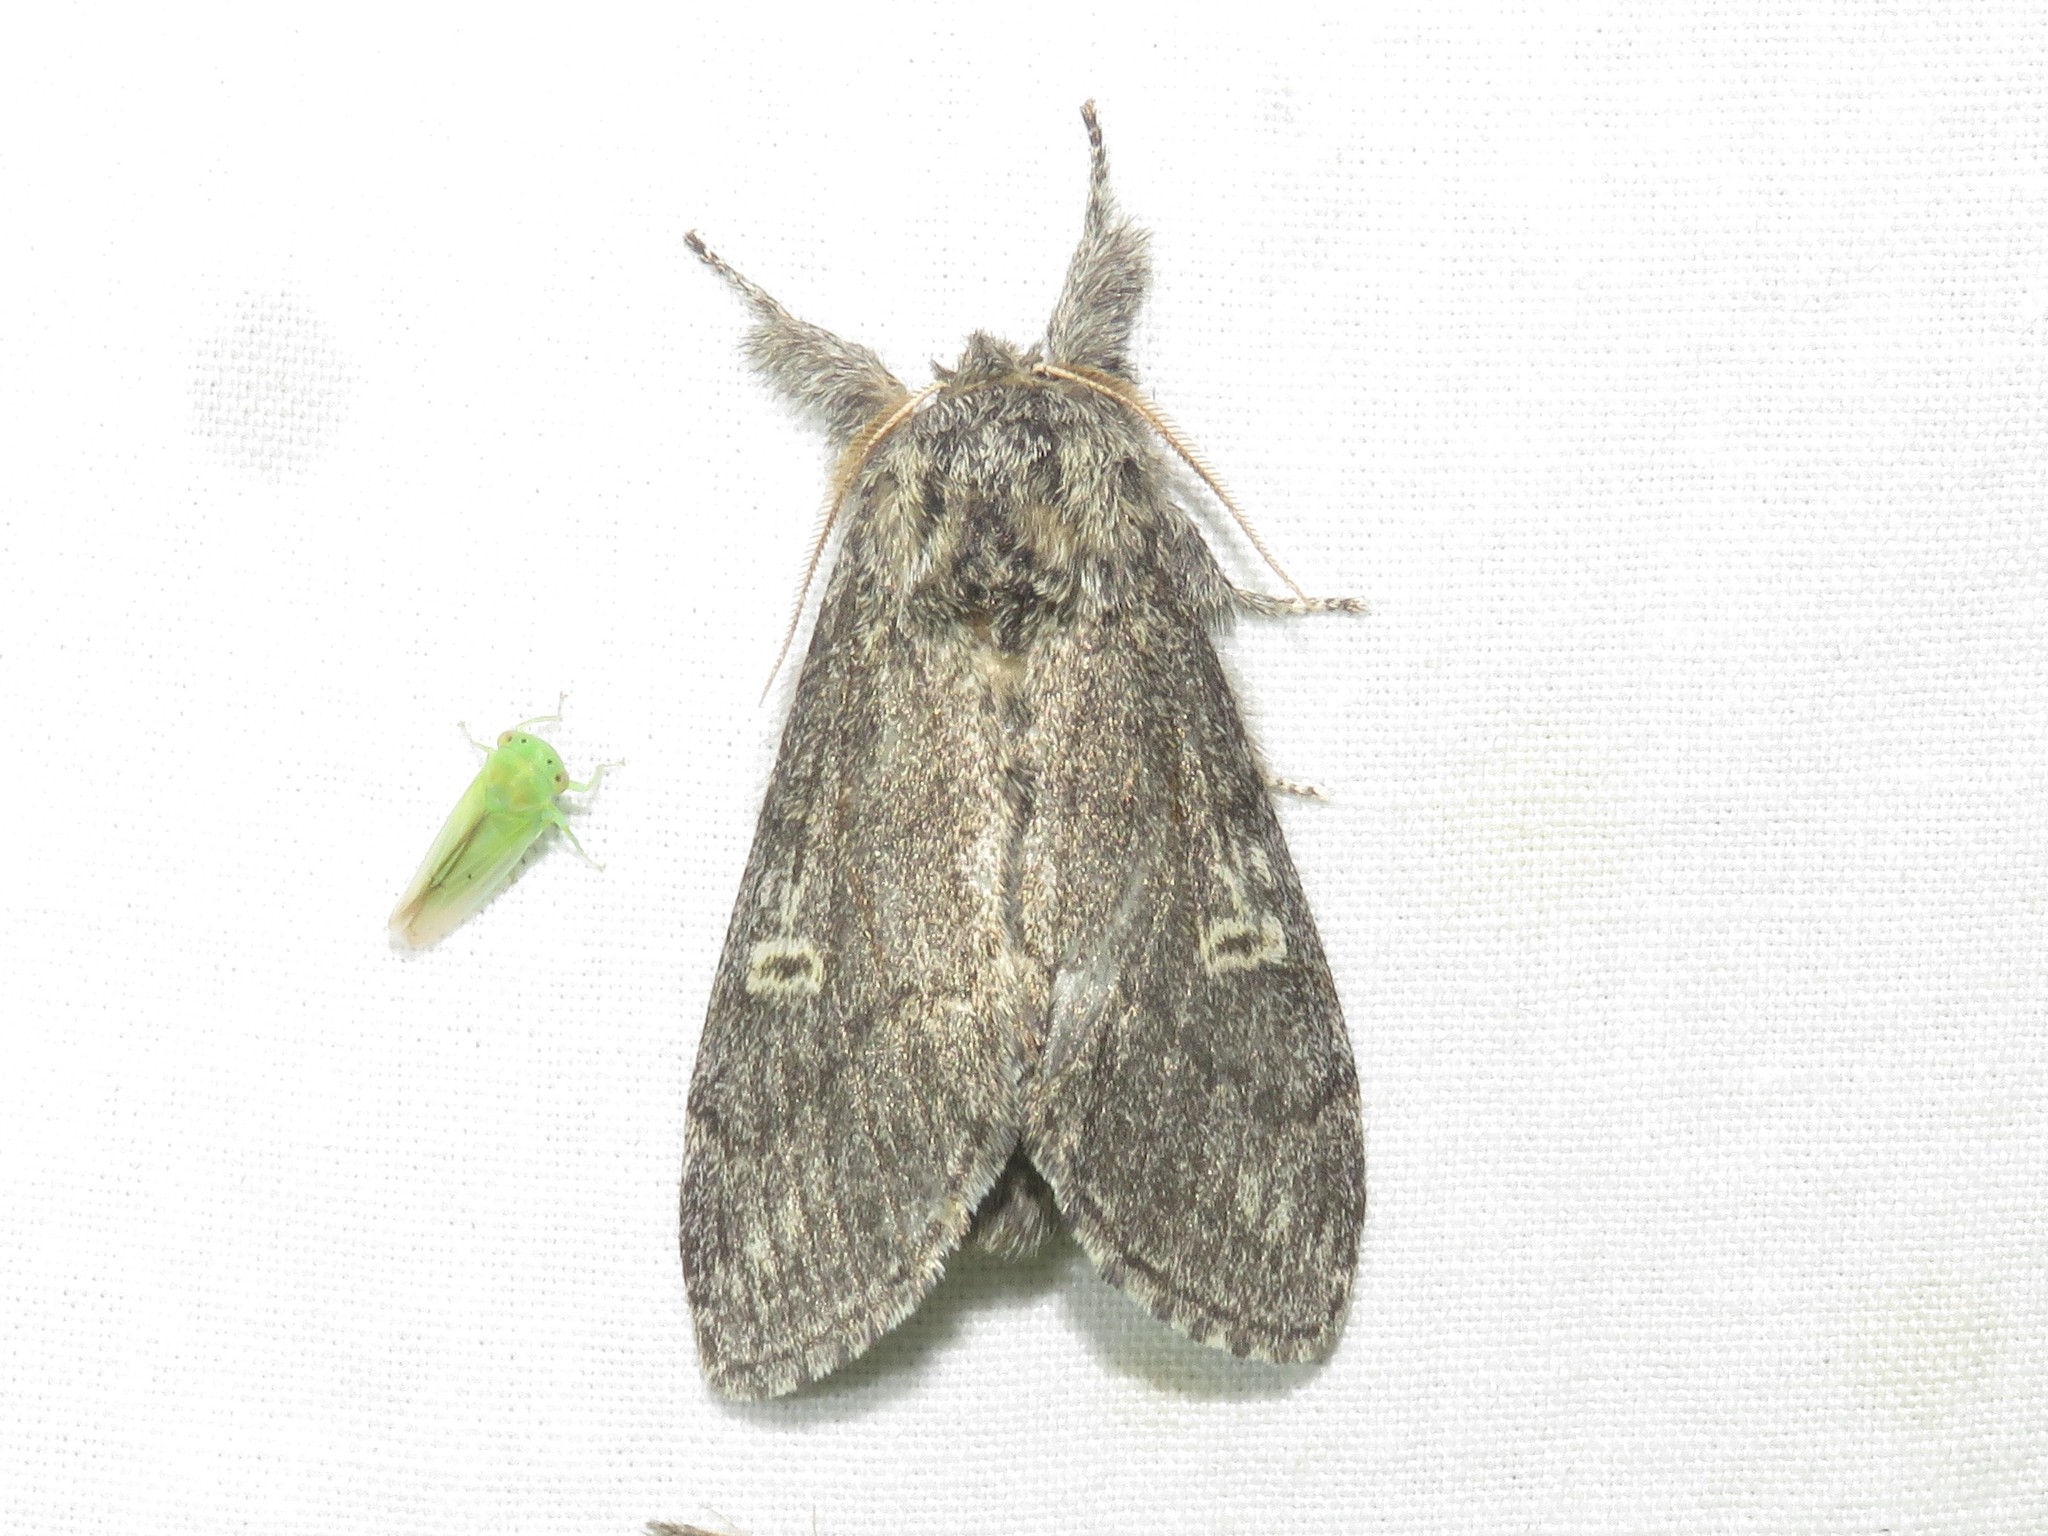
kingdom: Animalia
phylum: Arthropoda
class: Insecta
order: Lepidoptera
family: Notodontidae
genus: Notodonta
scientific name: Notodonta torva
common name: Large dark prominent
